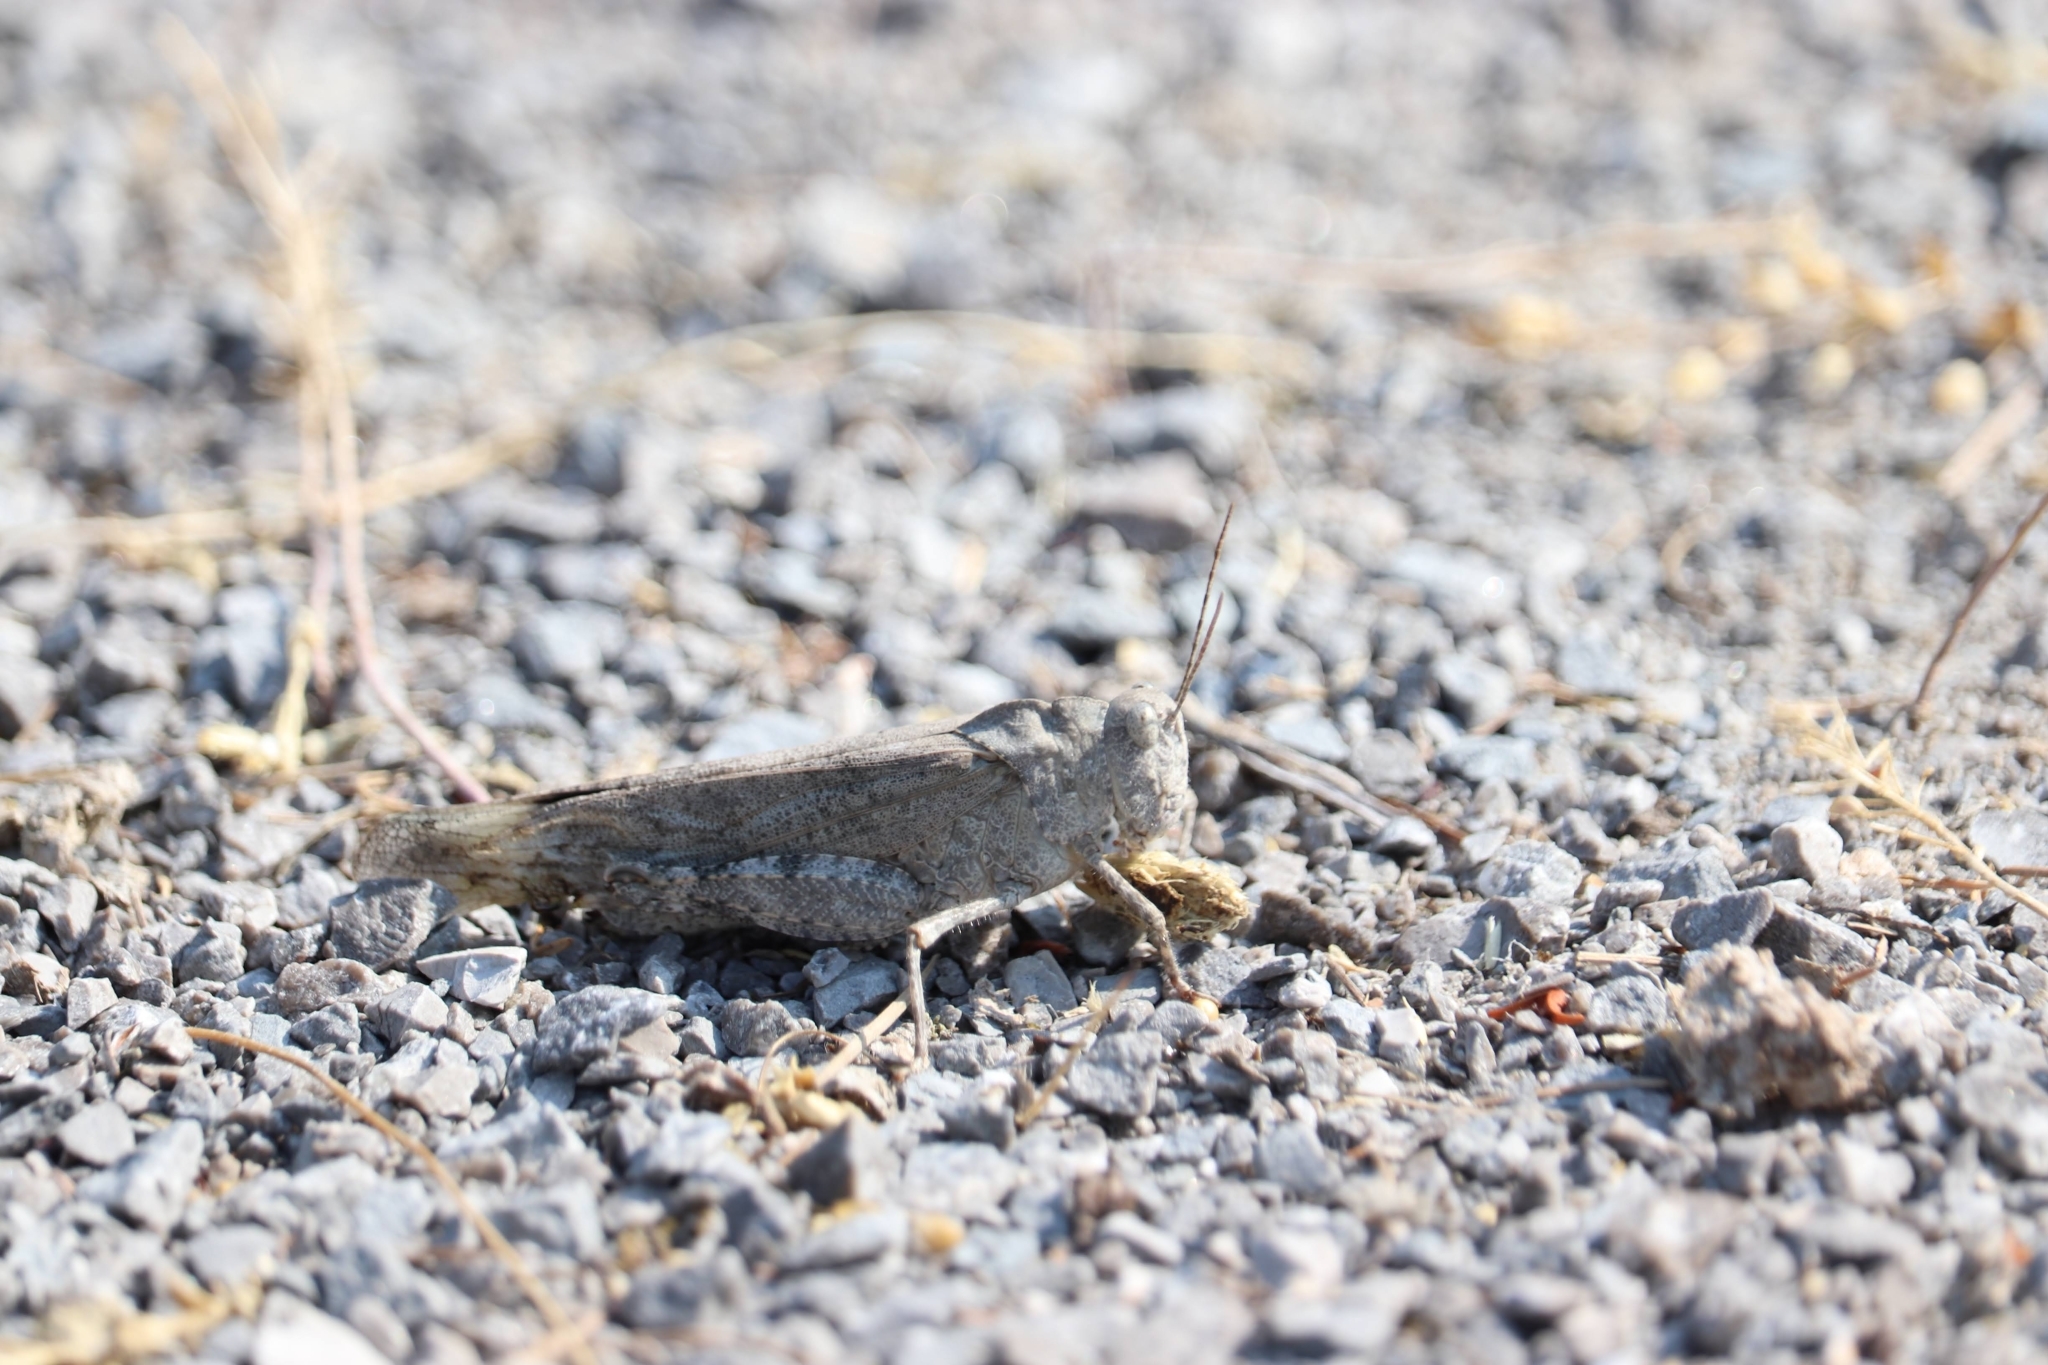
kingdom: Animalia
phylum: Arthropoda
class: Insecta
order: Orthoptera
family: Acrididae
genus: Dissosteira
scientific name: Dissosteira carolina
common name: Carolina grasshopper
